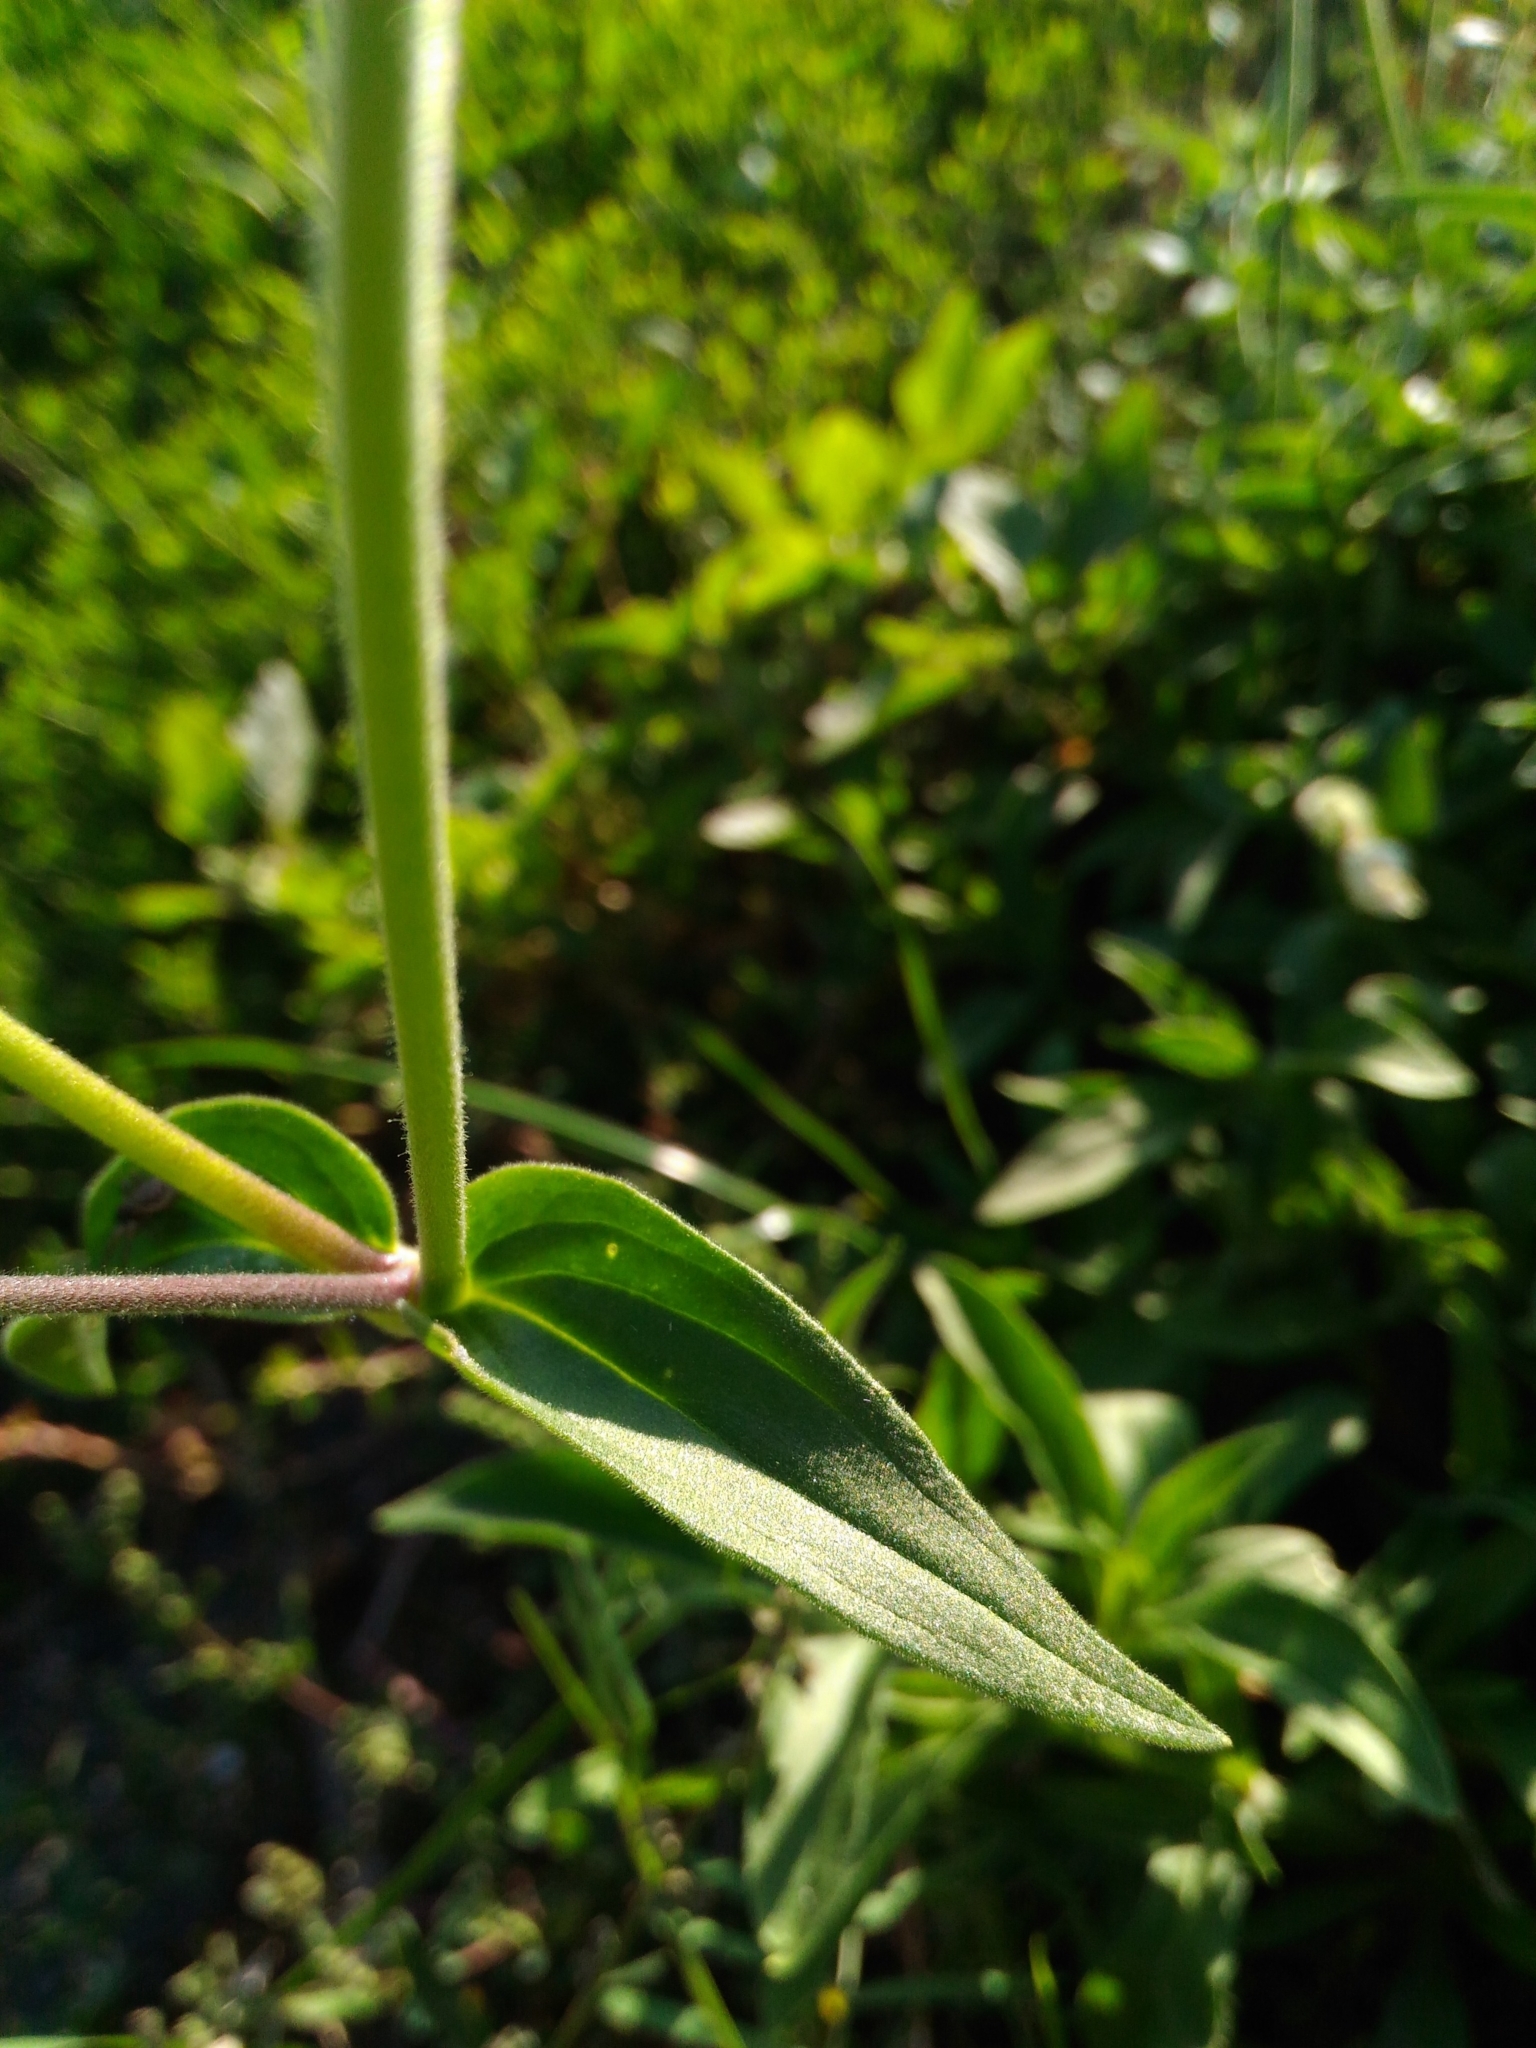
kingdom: Plantae
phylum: Tracheophyta
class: Magnoliopsida
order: Caryophyllales
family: Caryophyllaceae
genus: Silene
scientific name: Silene latifolia
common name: White campion
